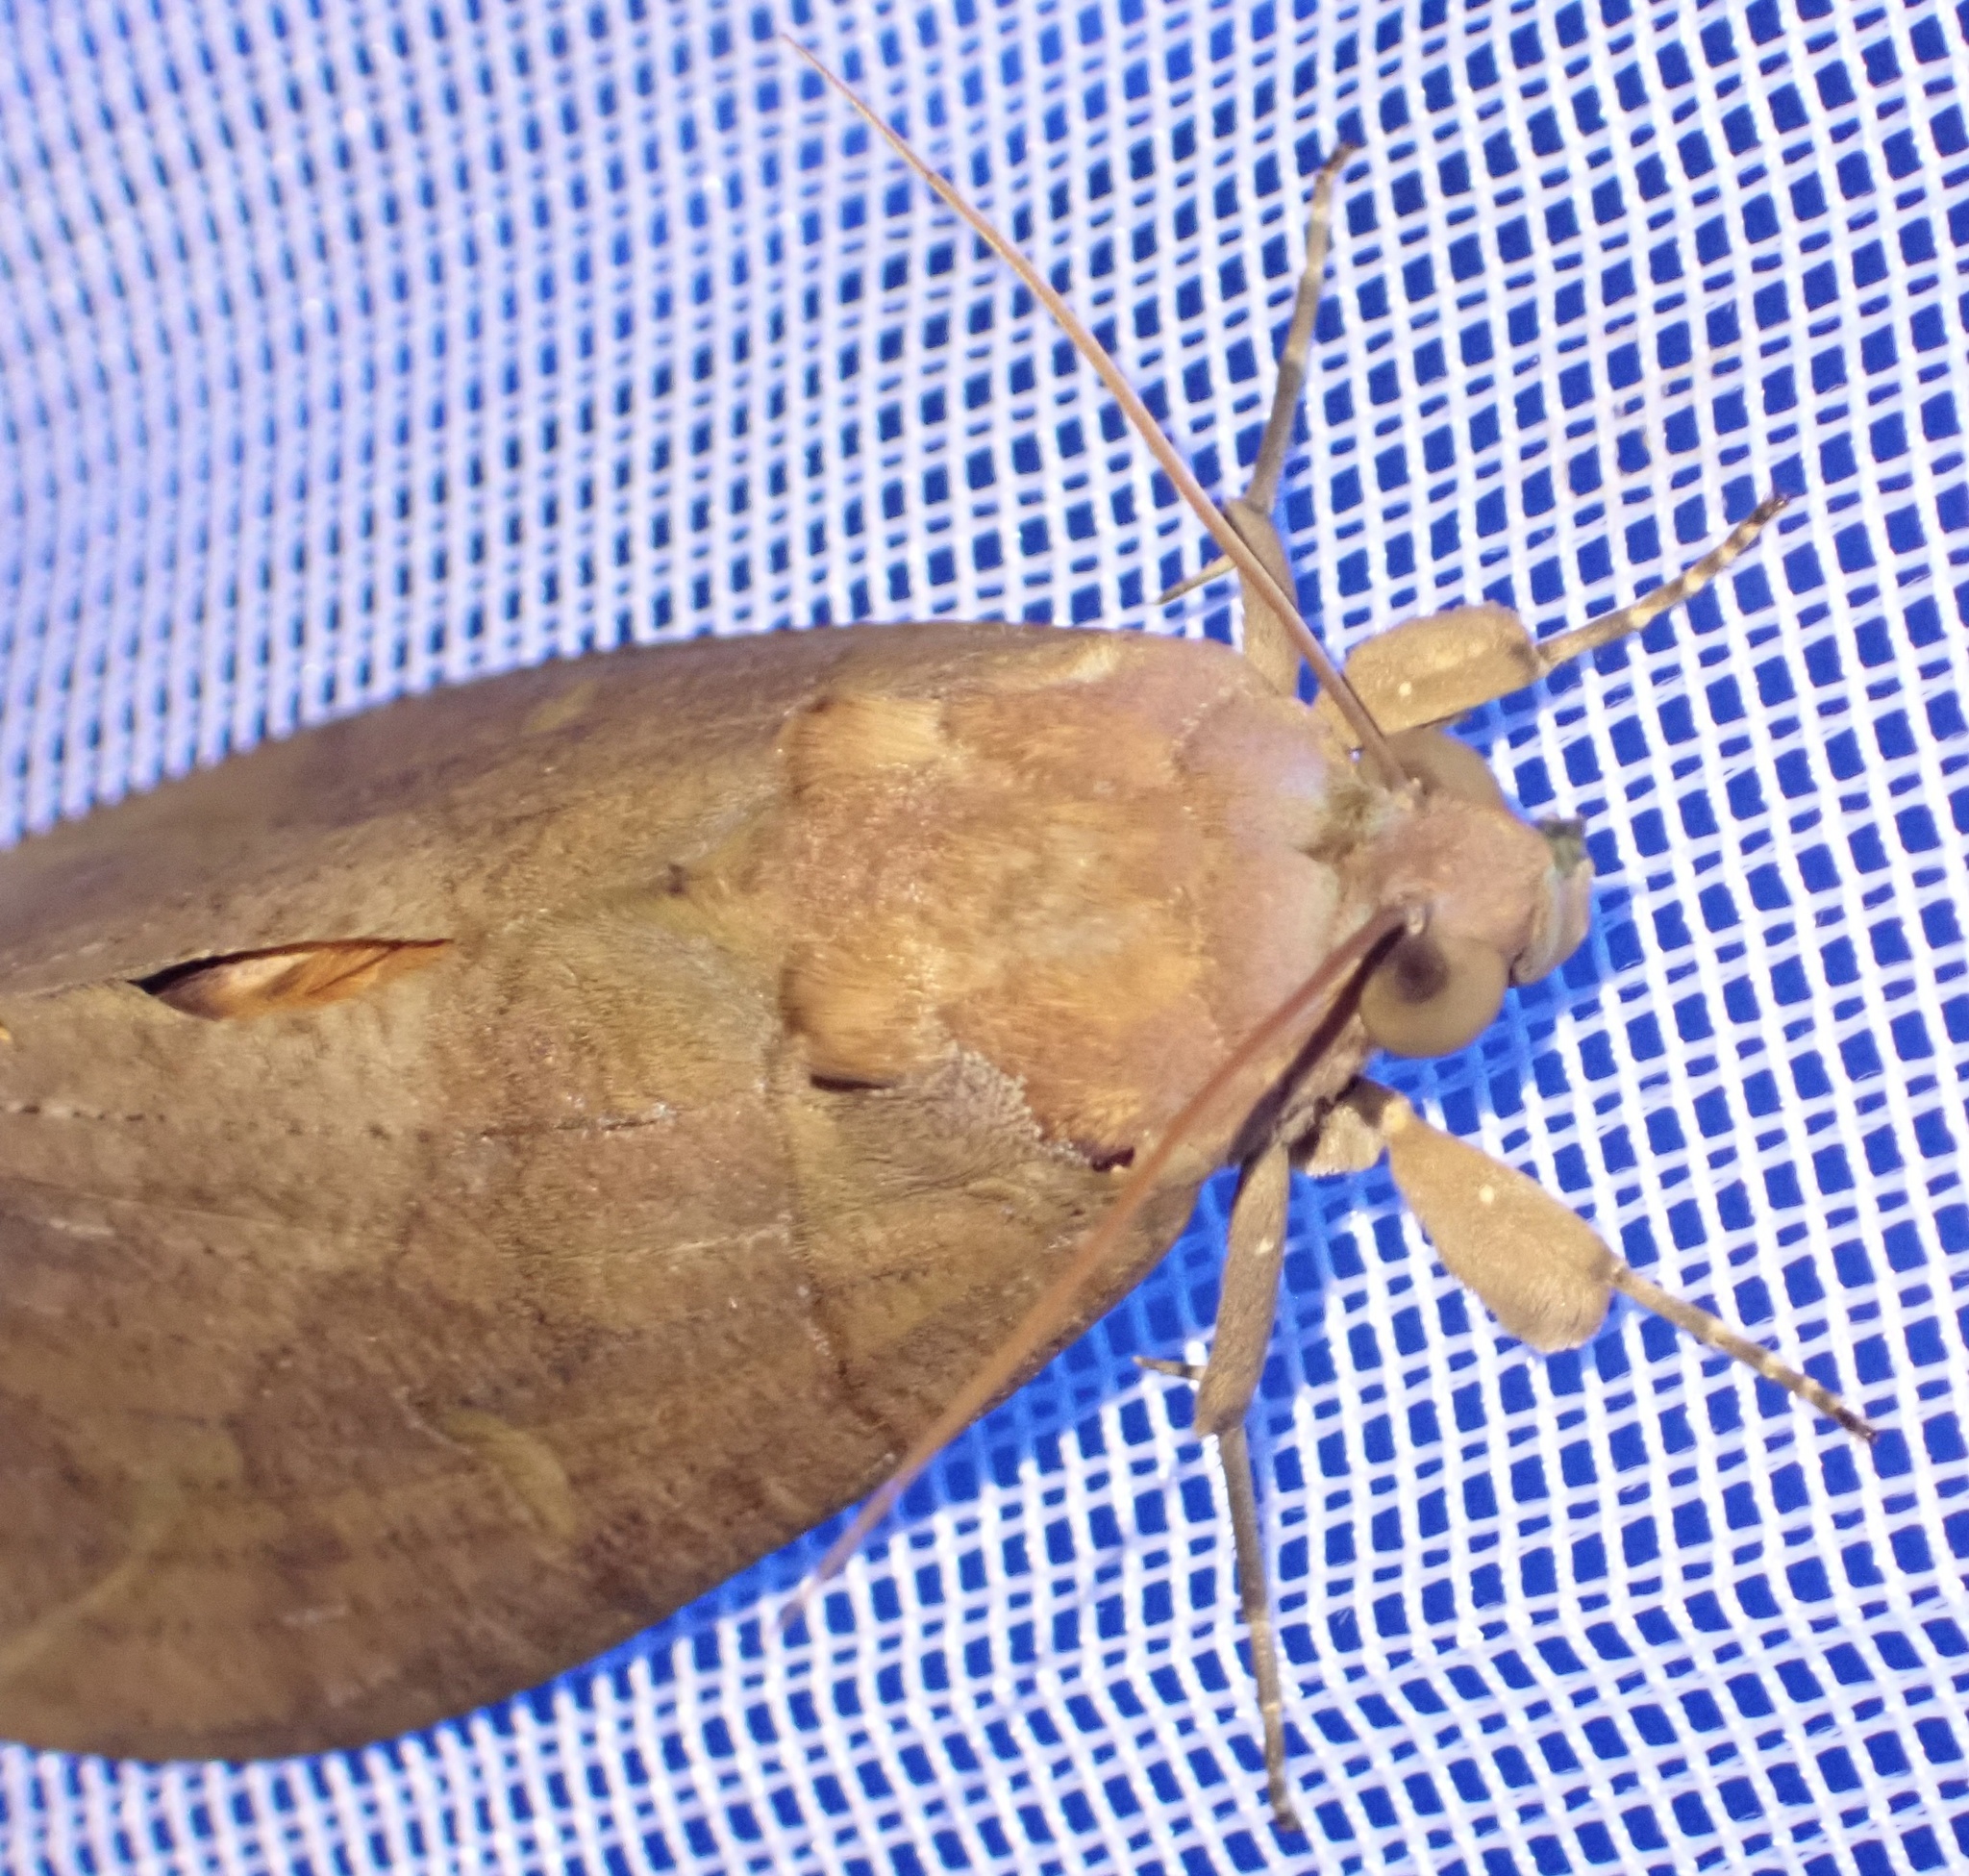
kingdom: Animalia
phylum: Arthropoda
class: Insecta
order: Lepidoptera
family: Erebidae
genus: Eudocima
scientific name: Eudocima afrikana
